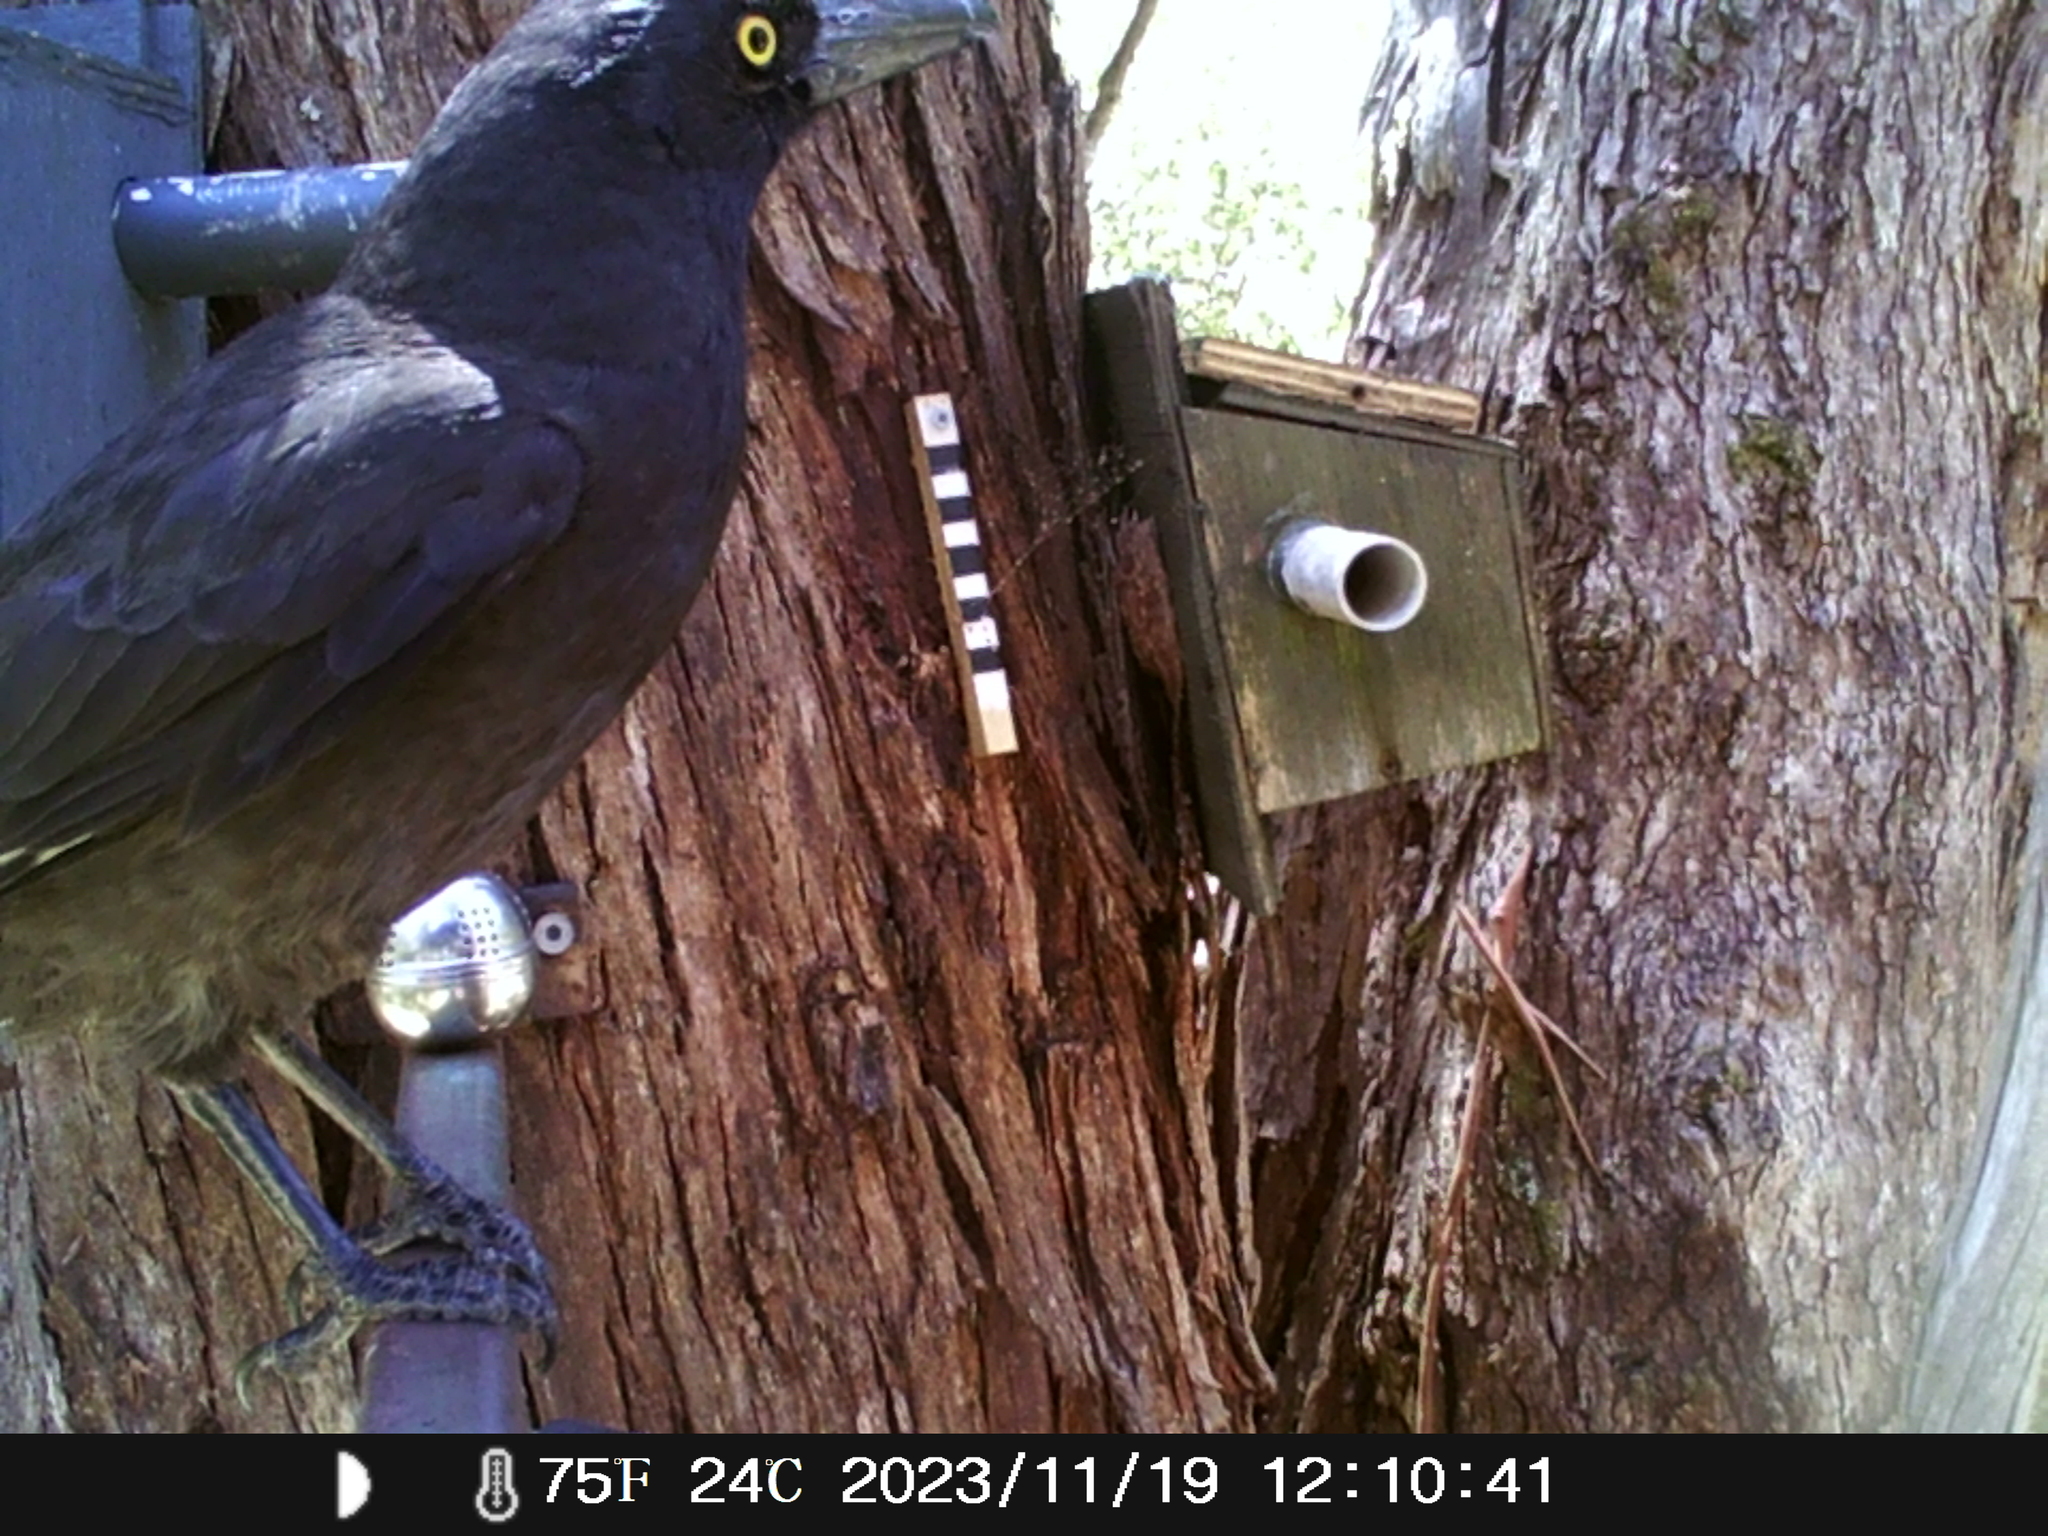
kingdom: Animalia
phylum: Chordata
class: Aves
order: Passeriformes
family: Cracticidae
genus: Strepera
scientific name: Strepera graculina
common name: Pied currawong
